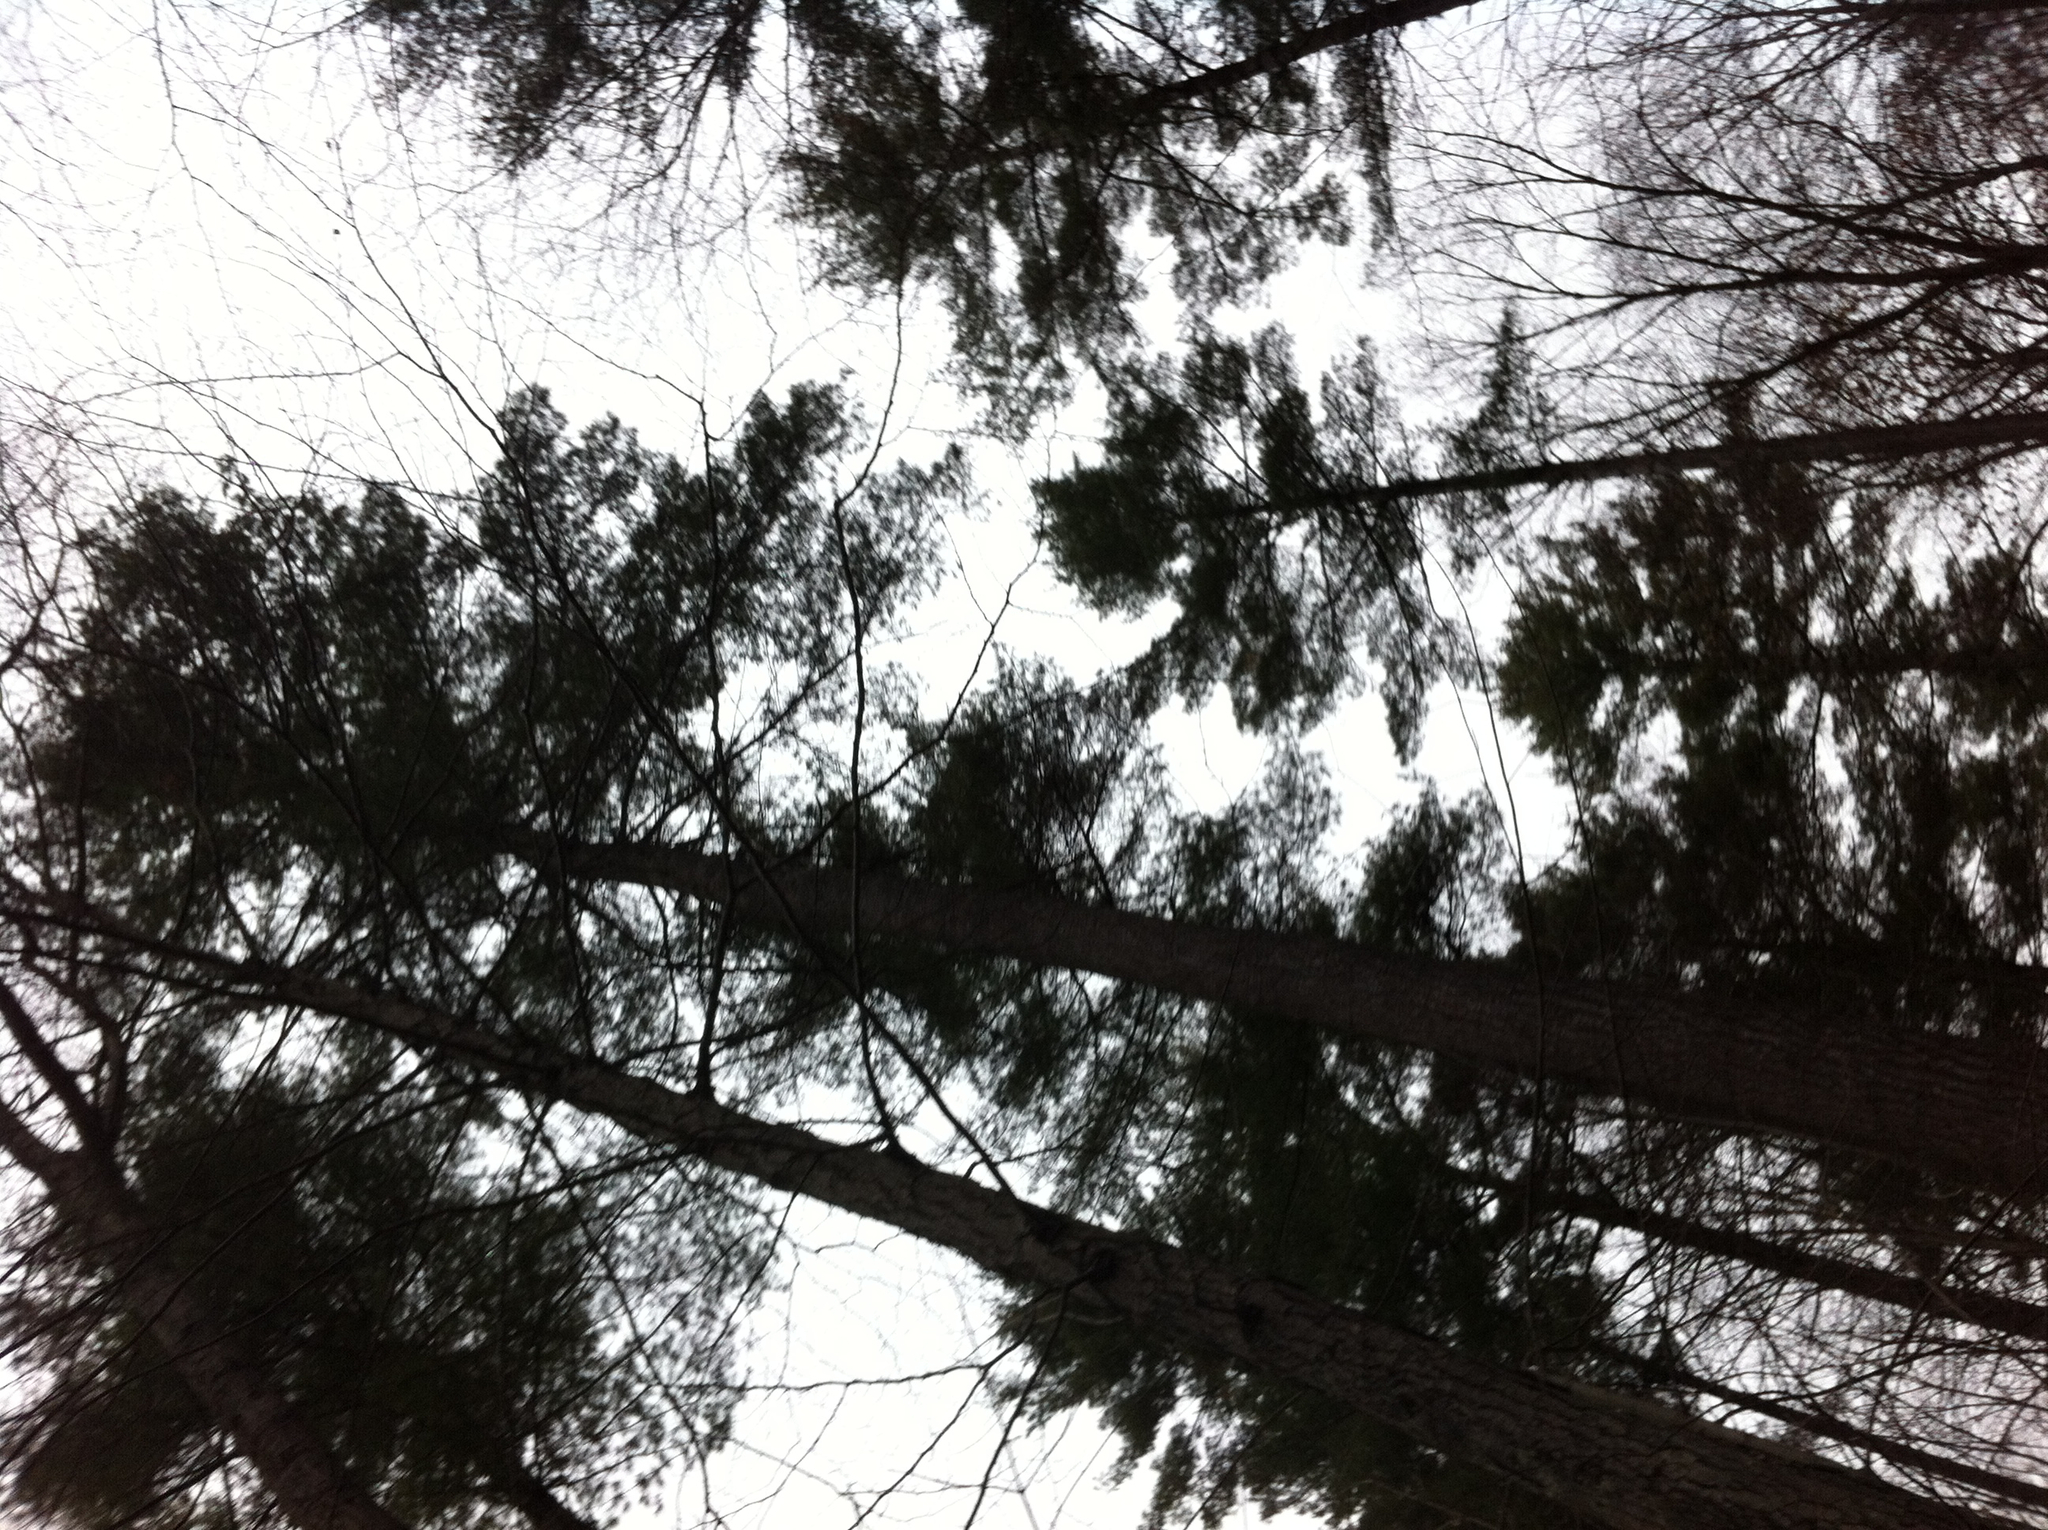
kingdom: Plantae
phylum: Tracheophyta
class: Pinopsida
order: Pinales
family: Pinaceae
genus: Pinus
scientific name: Pinus strobus
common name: Weymouth pine
